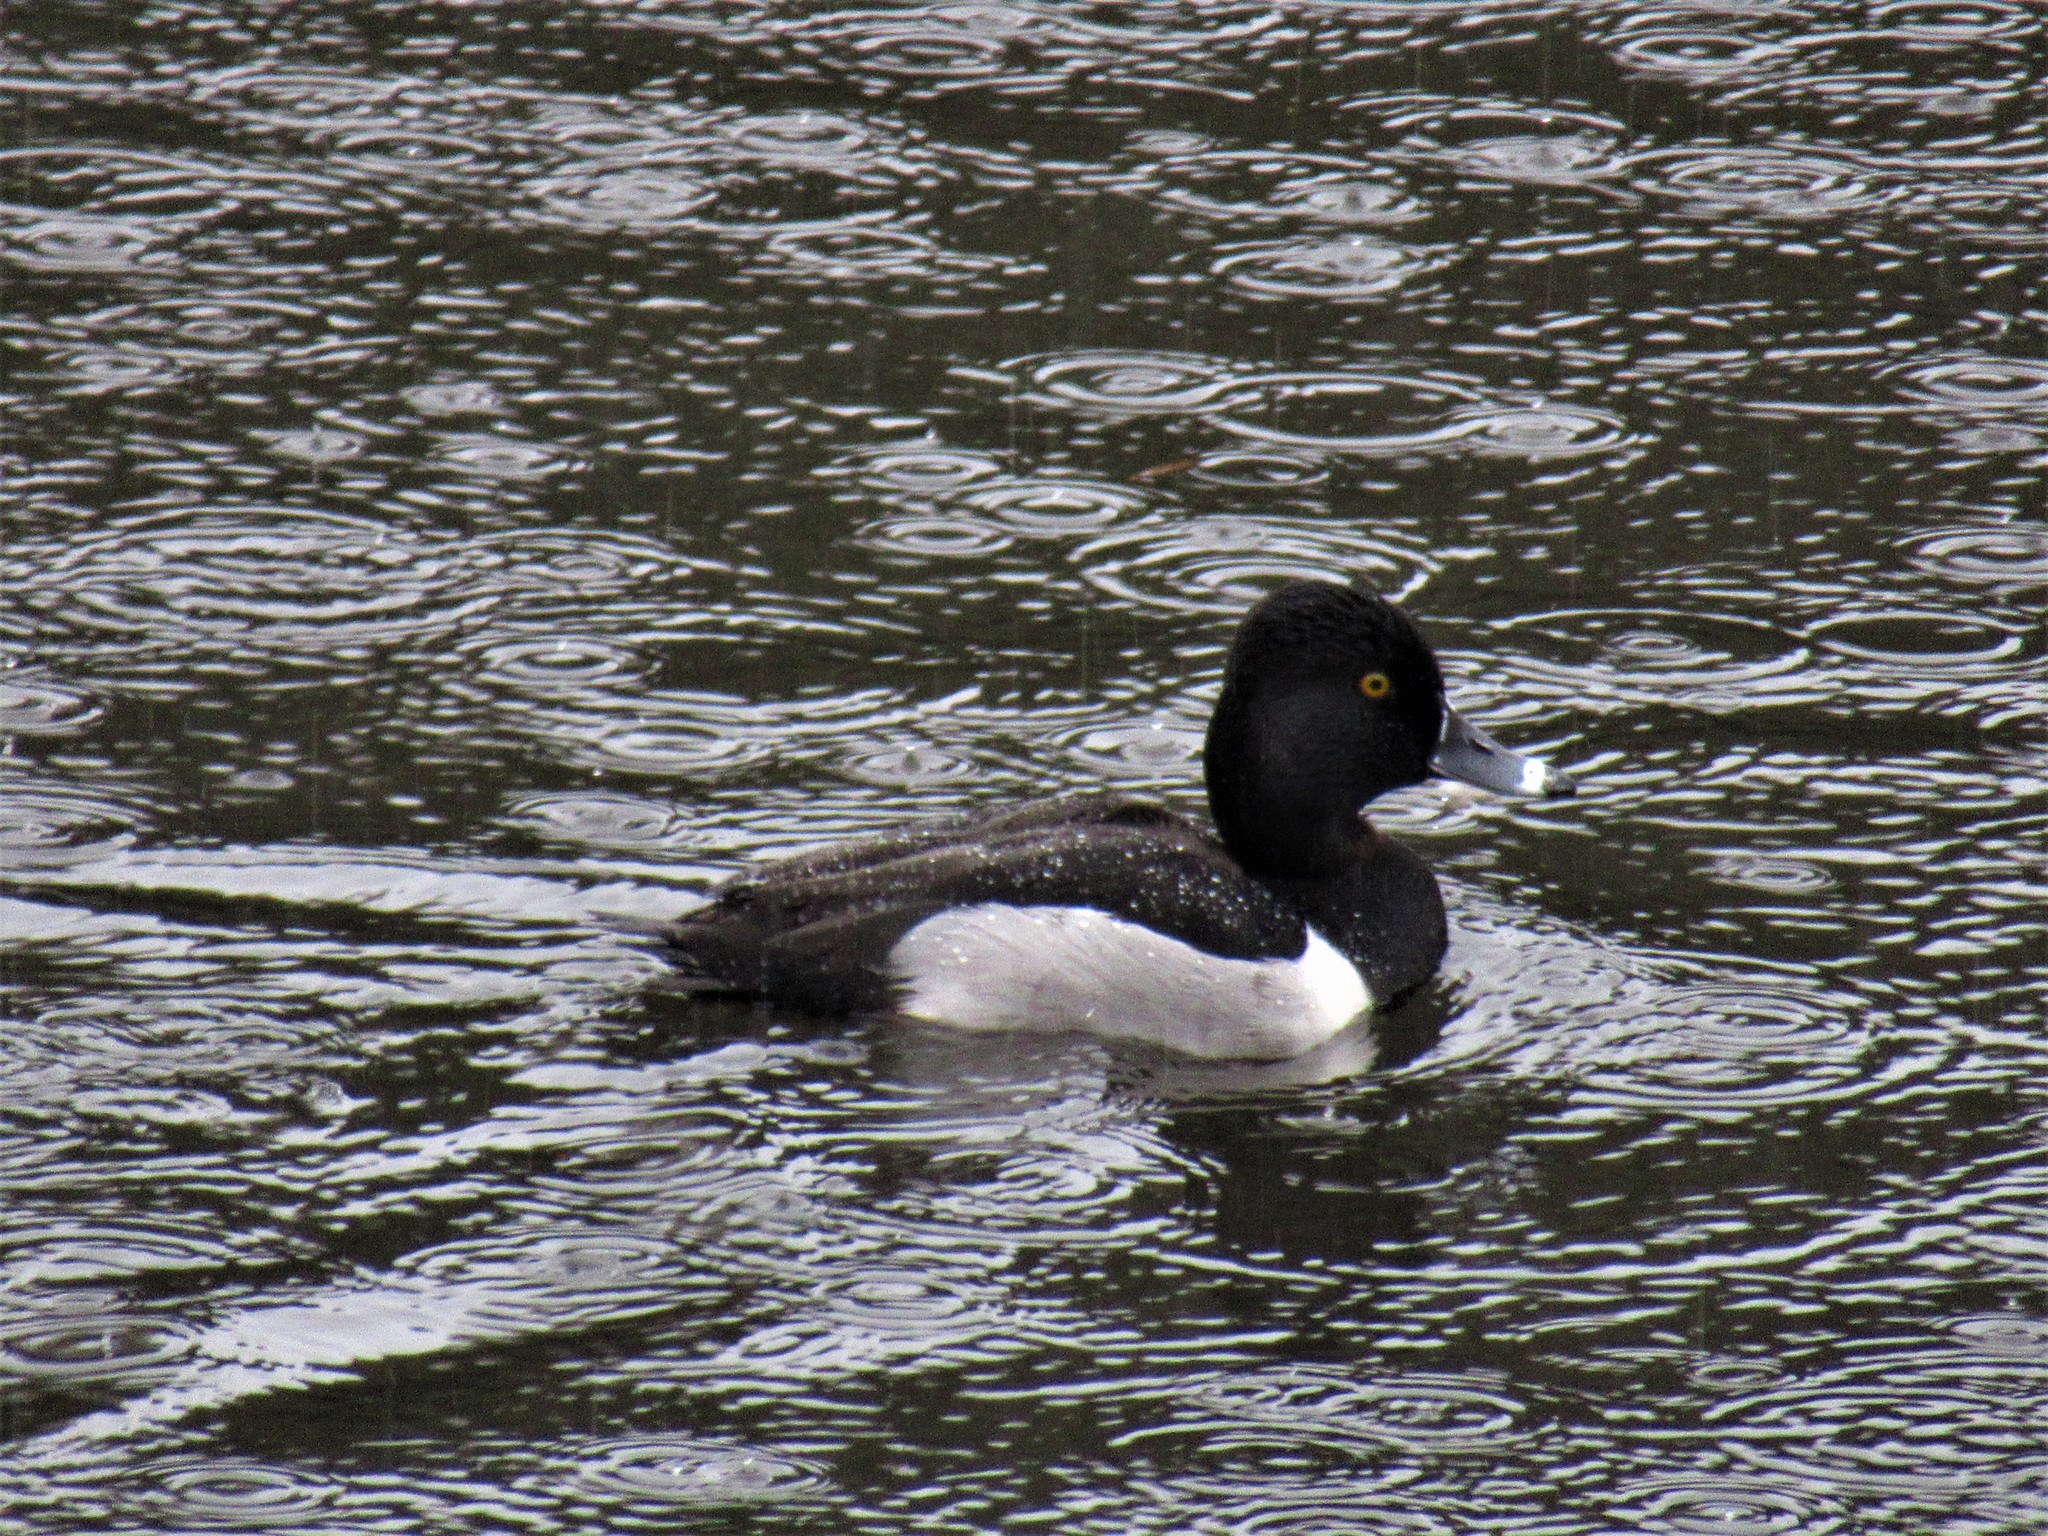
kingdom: Animalia
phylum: Chordata
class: Aves
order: Anseriformes
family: Anatidae
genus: Aythya
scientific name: Aythya collaris
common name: Ring-necked duck
